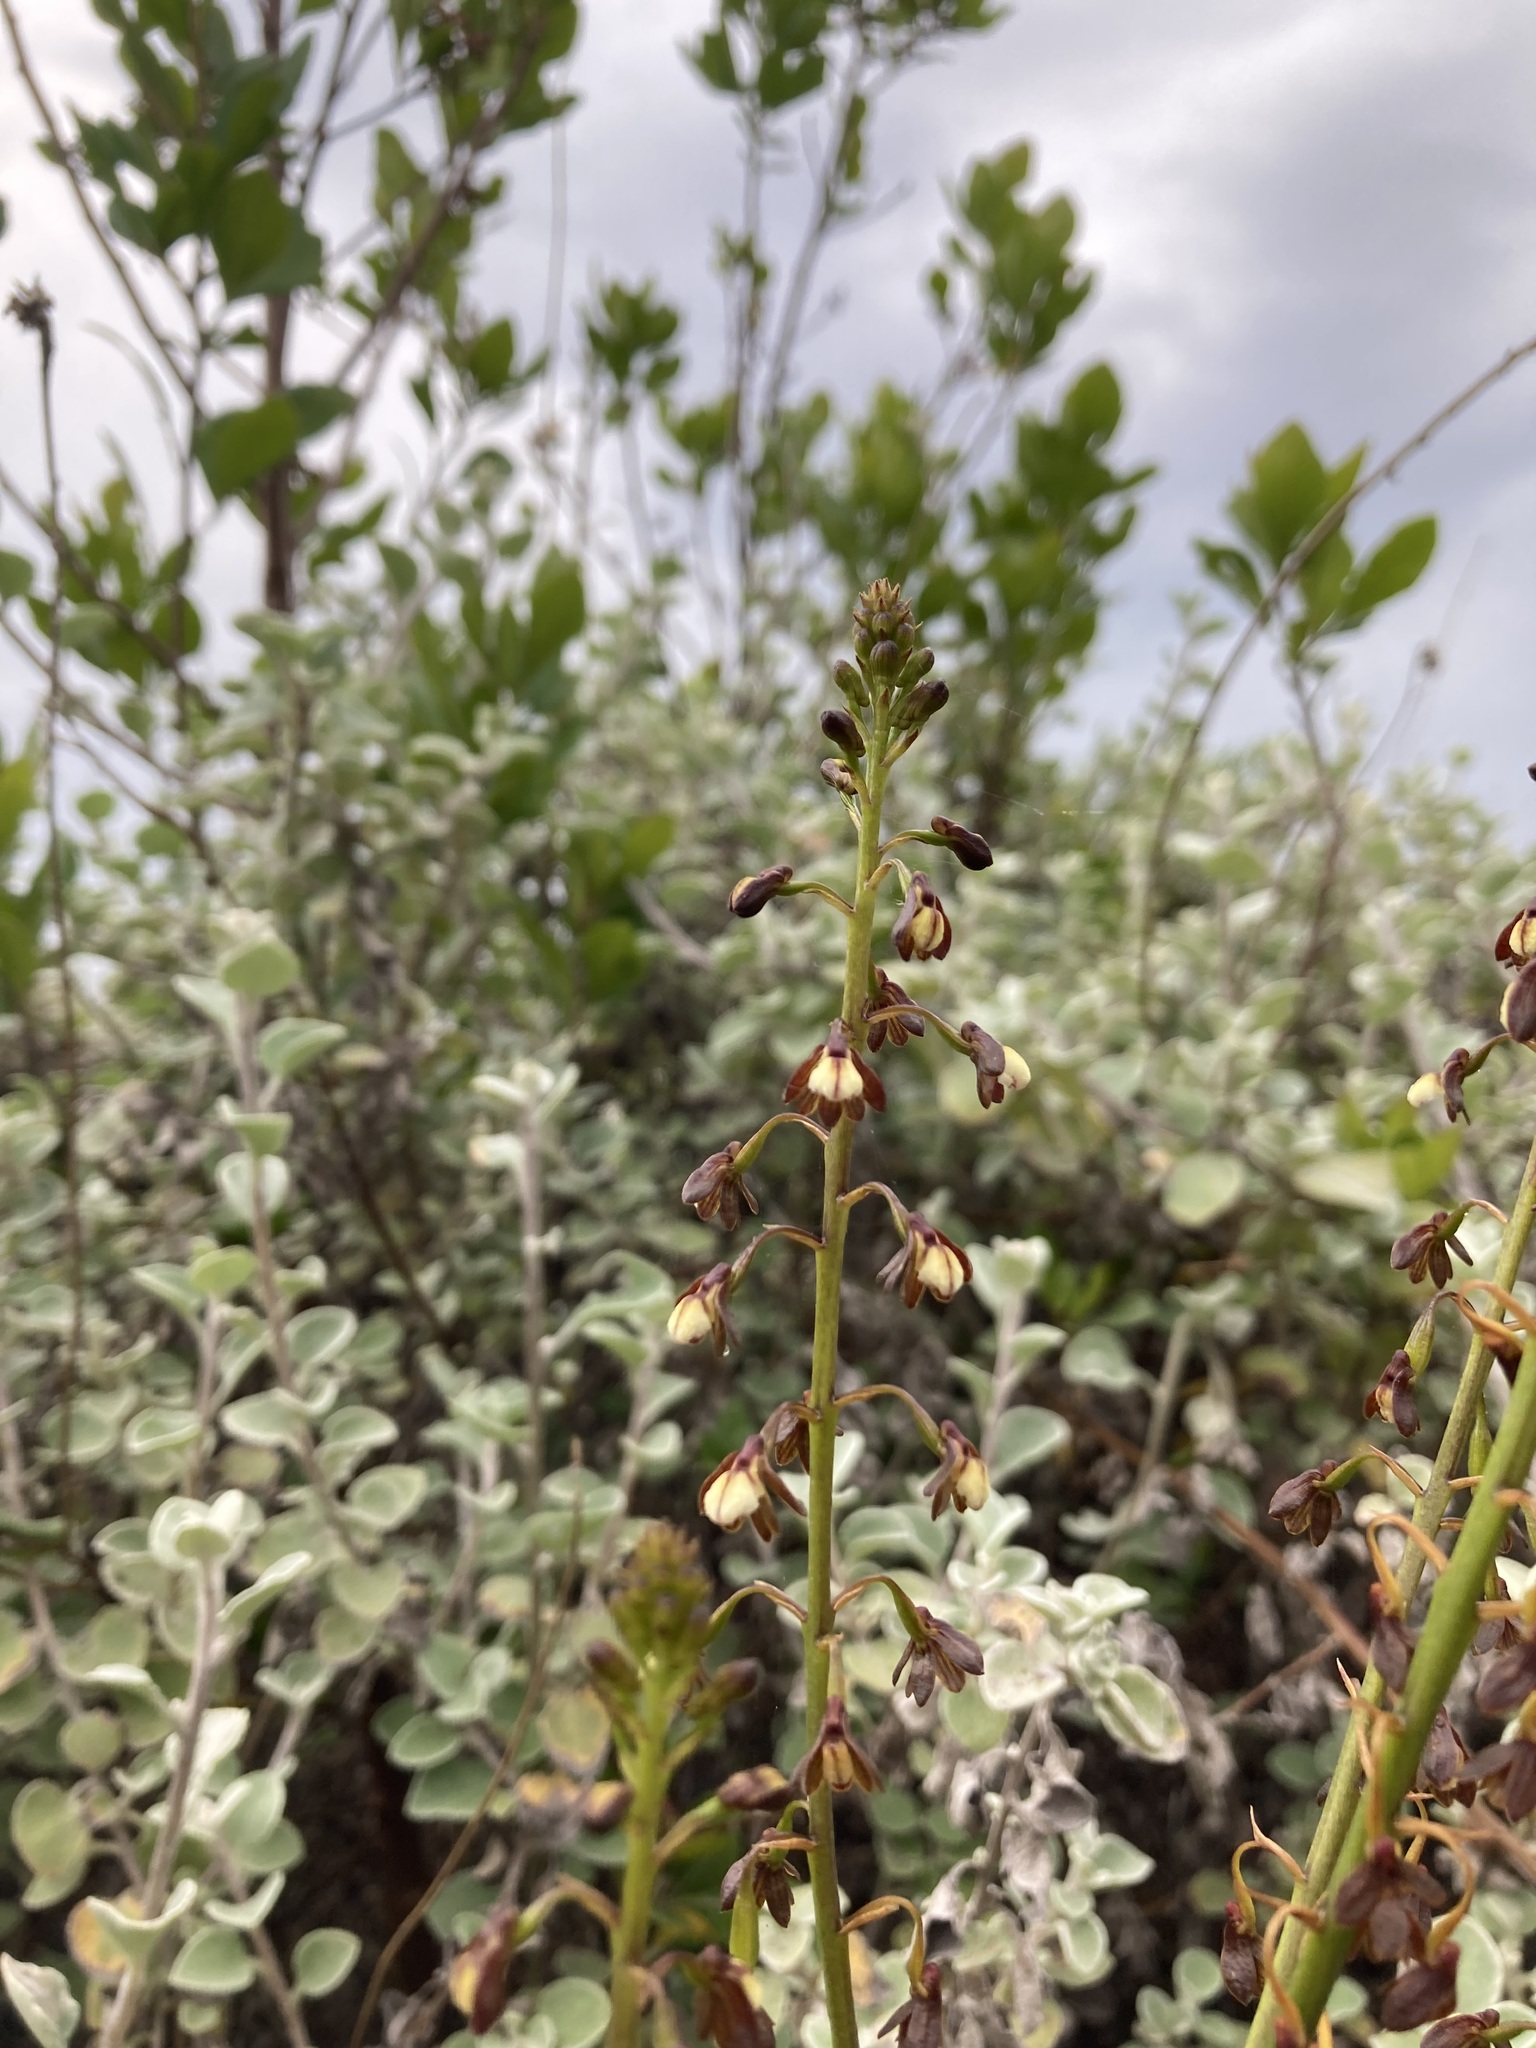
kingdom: Plantae
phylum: Tracheophyta
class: Liliopsida
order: Asparagales
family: Orchidaceae
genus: Eulophia
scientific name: Eulophia cochlearis
